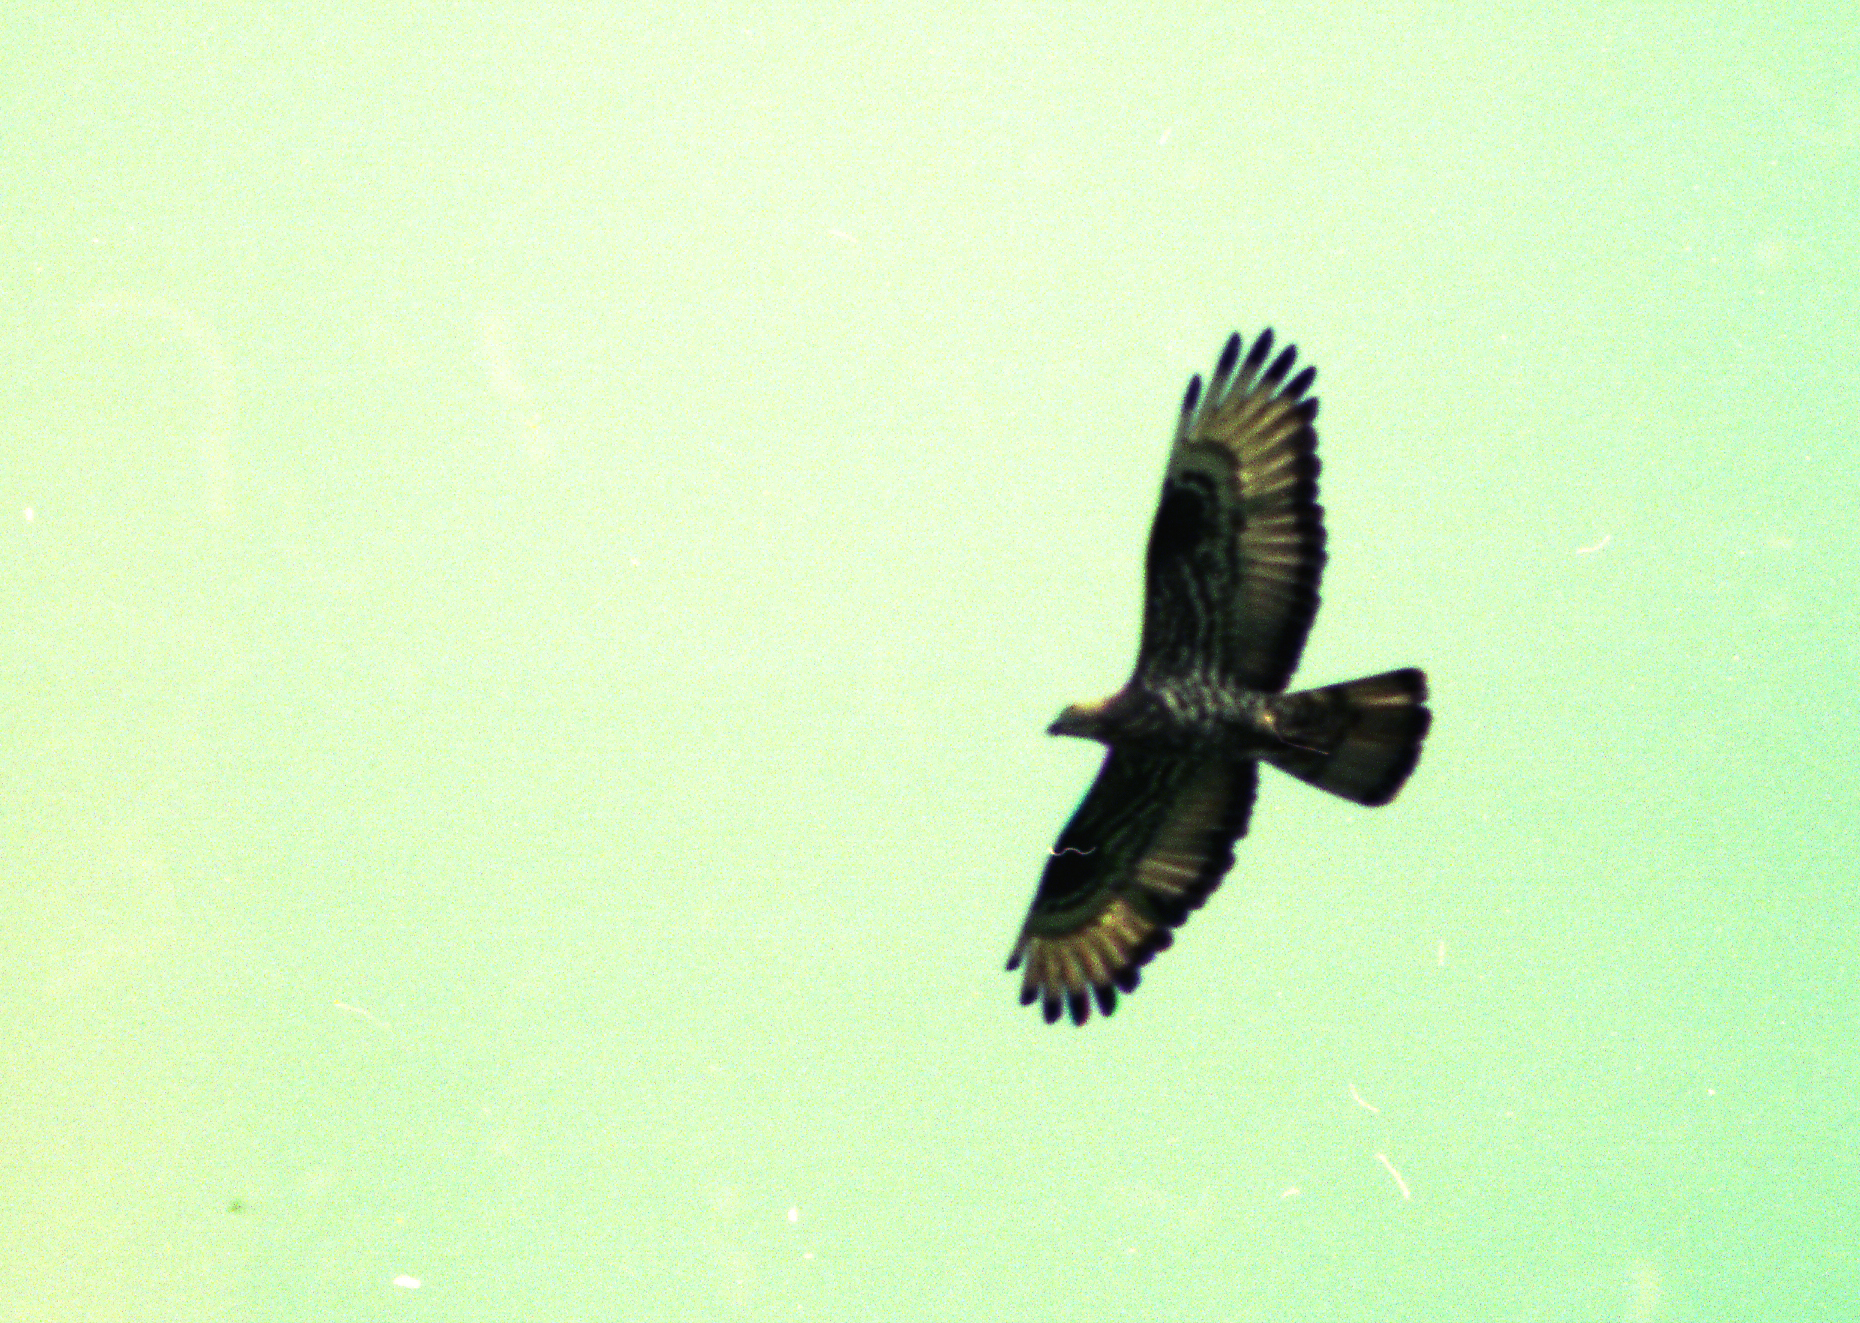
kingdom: Animalia
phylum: Chordata
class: Aves
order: Accipitriformes
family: Accipitridae
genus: Pernis
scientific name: Pernis apivorus
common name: European honey buzzard
